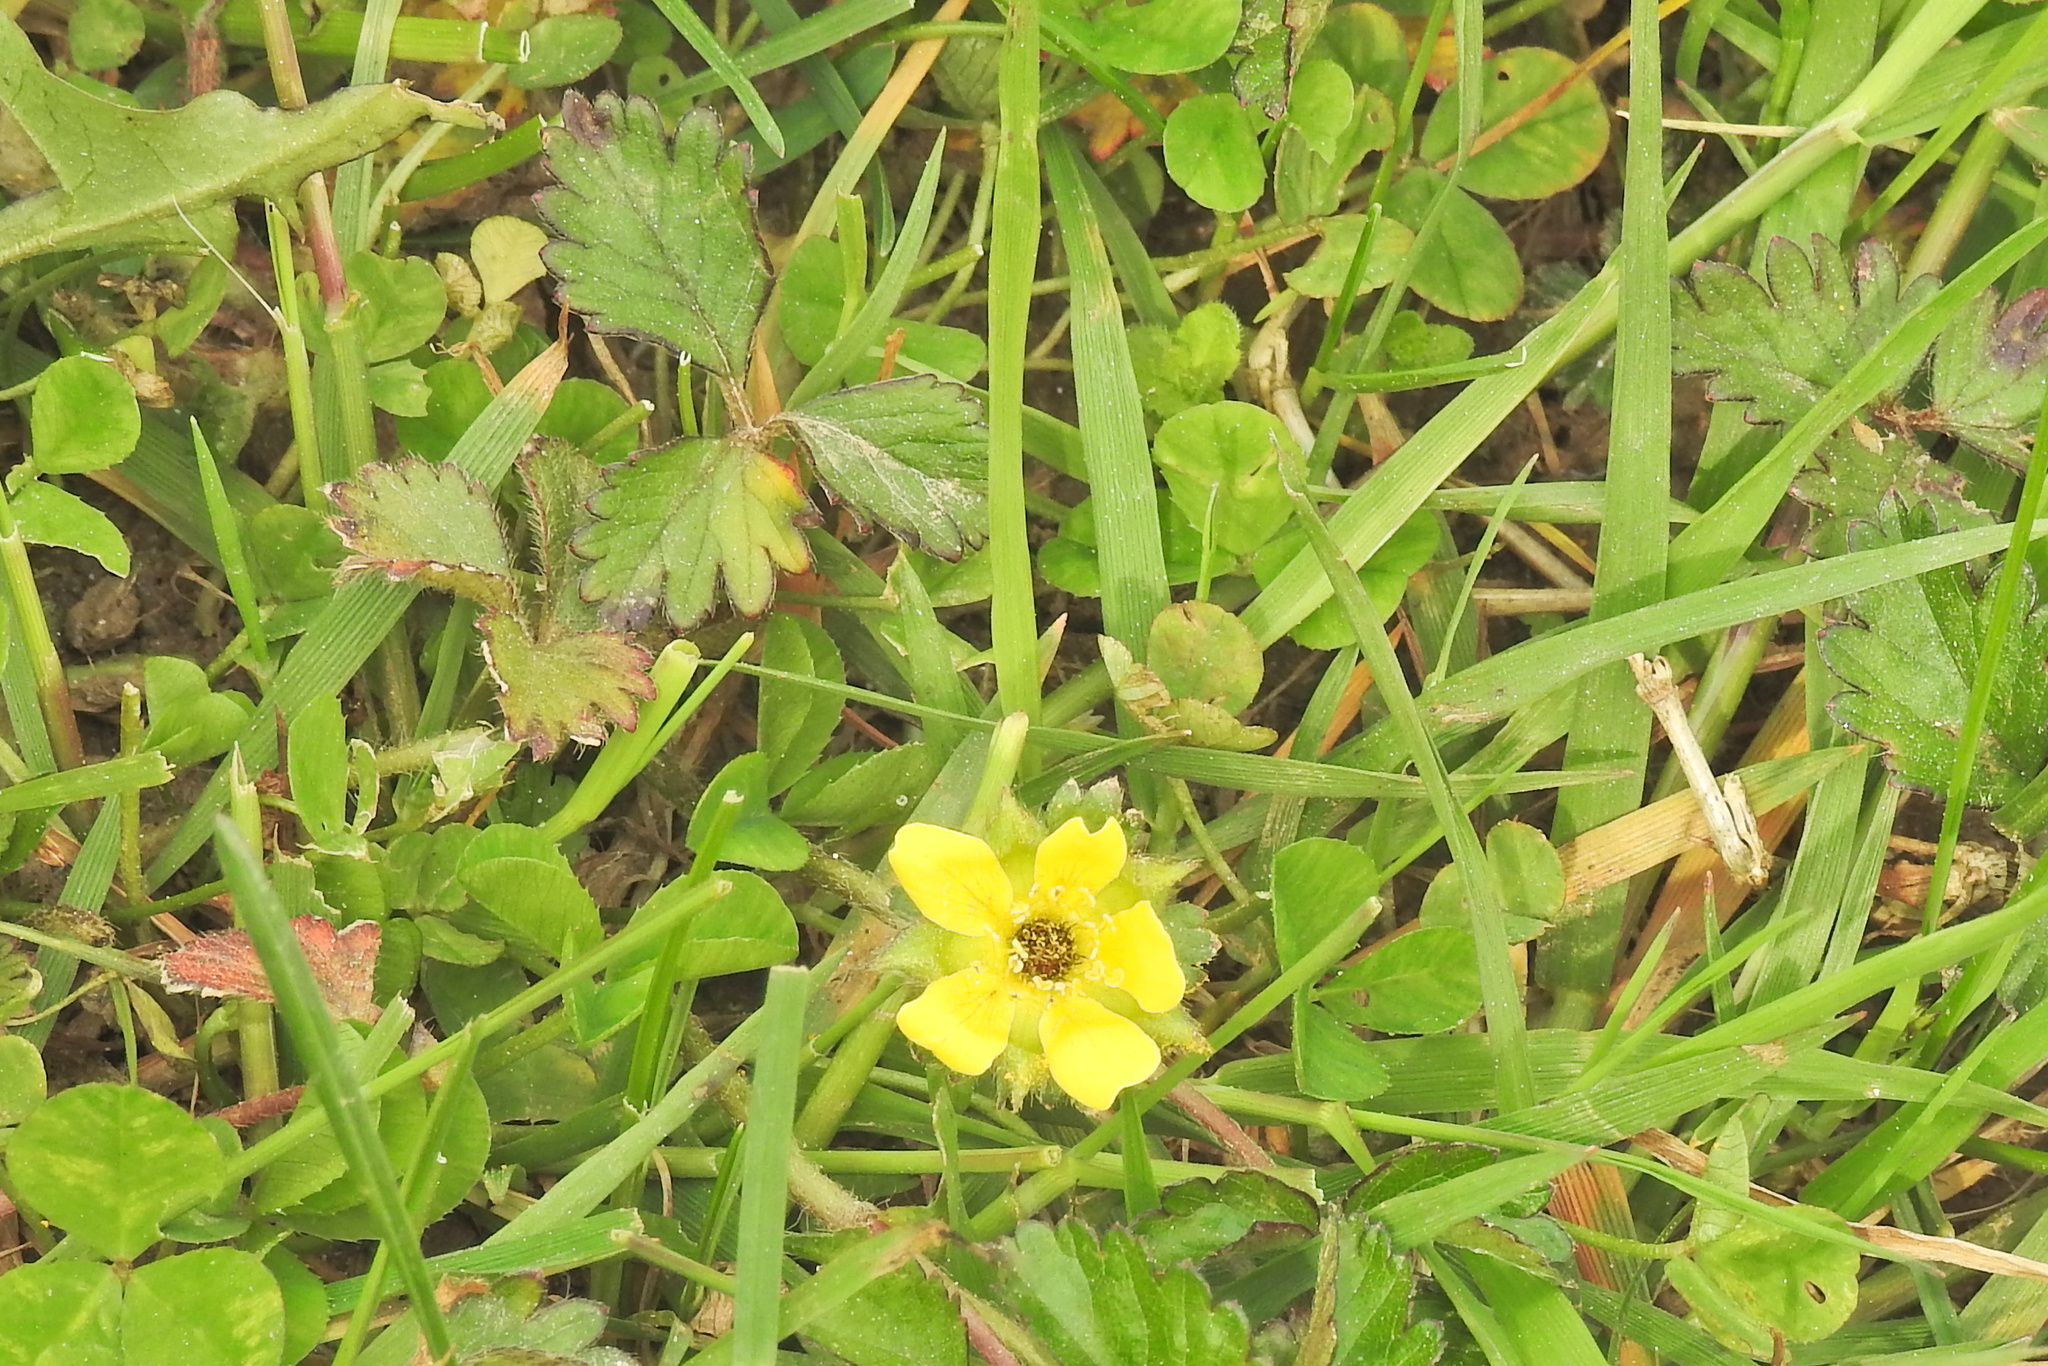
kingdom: Plantae
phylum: Tracheophyta
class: Magnoliopsida
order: Rosales
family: Rosaceae
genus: Potentilla
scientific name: Potentilla indica
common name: Yellow-flowered strawberry
